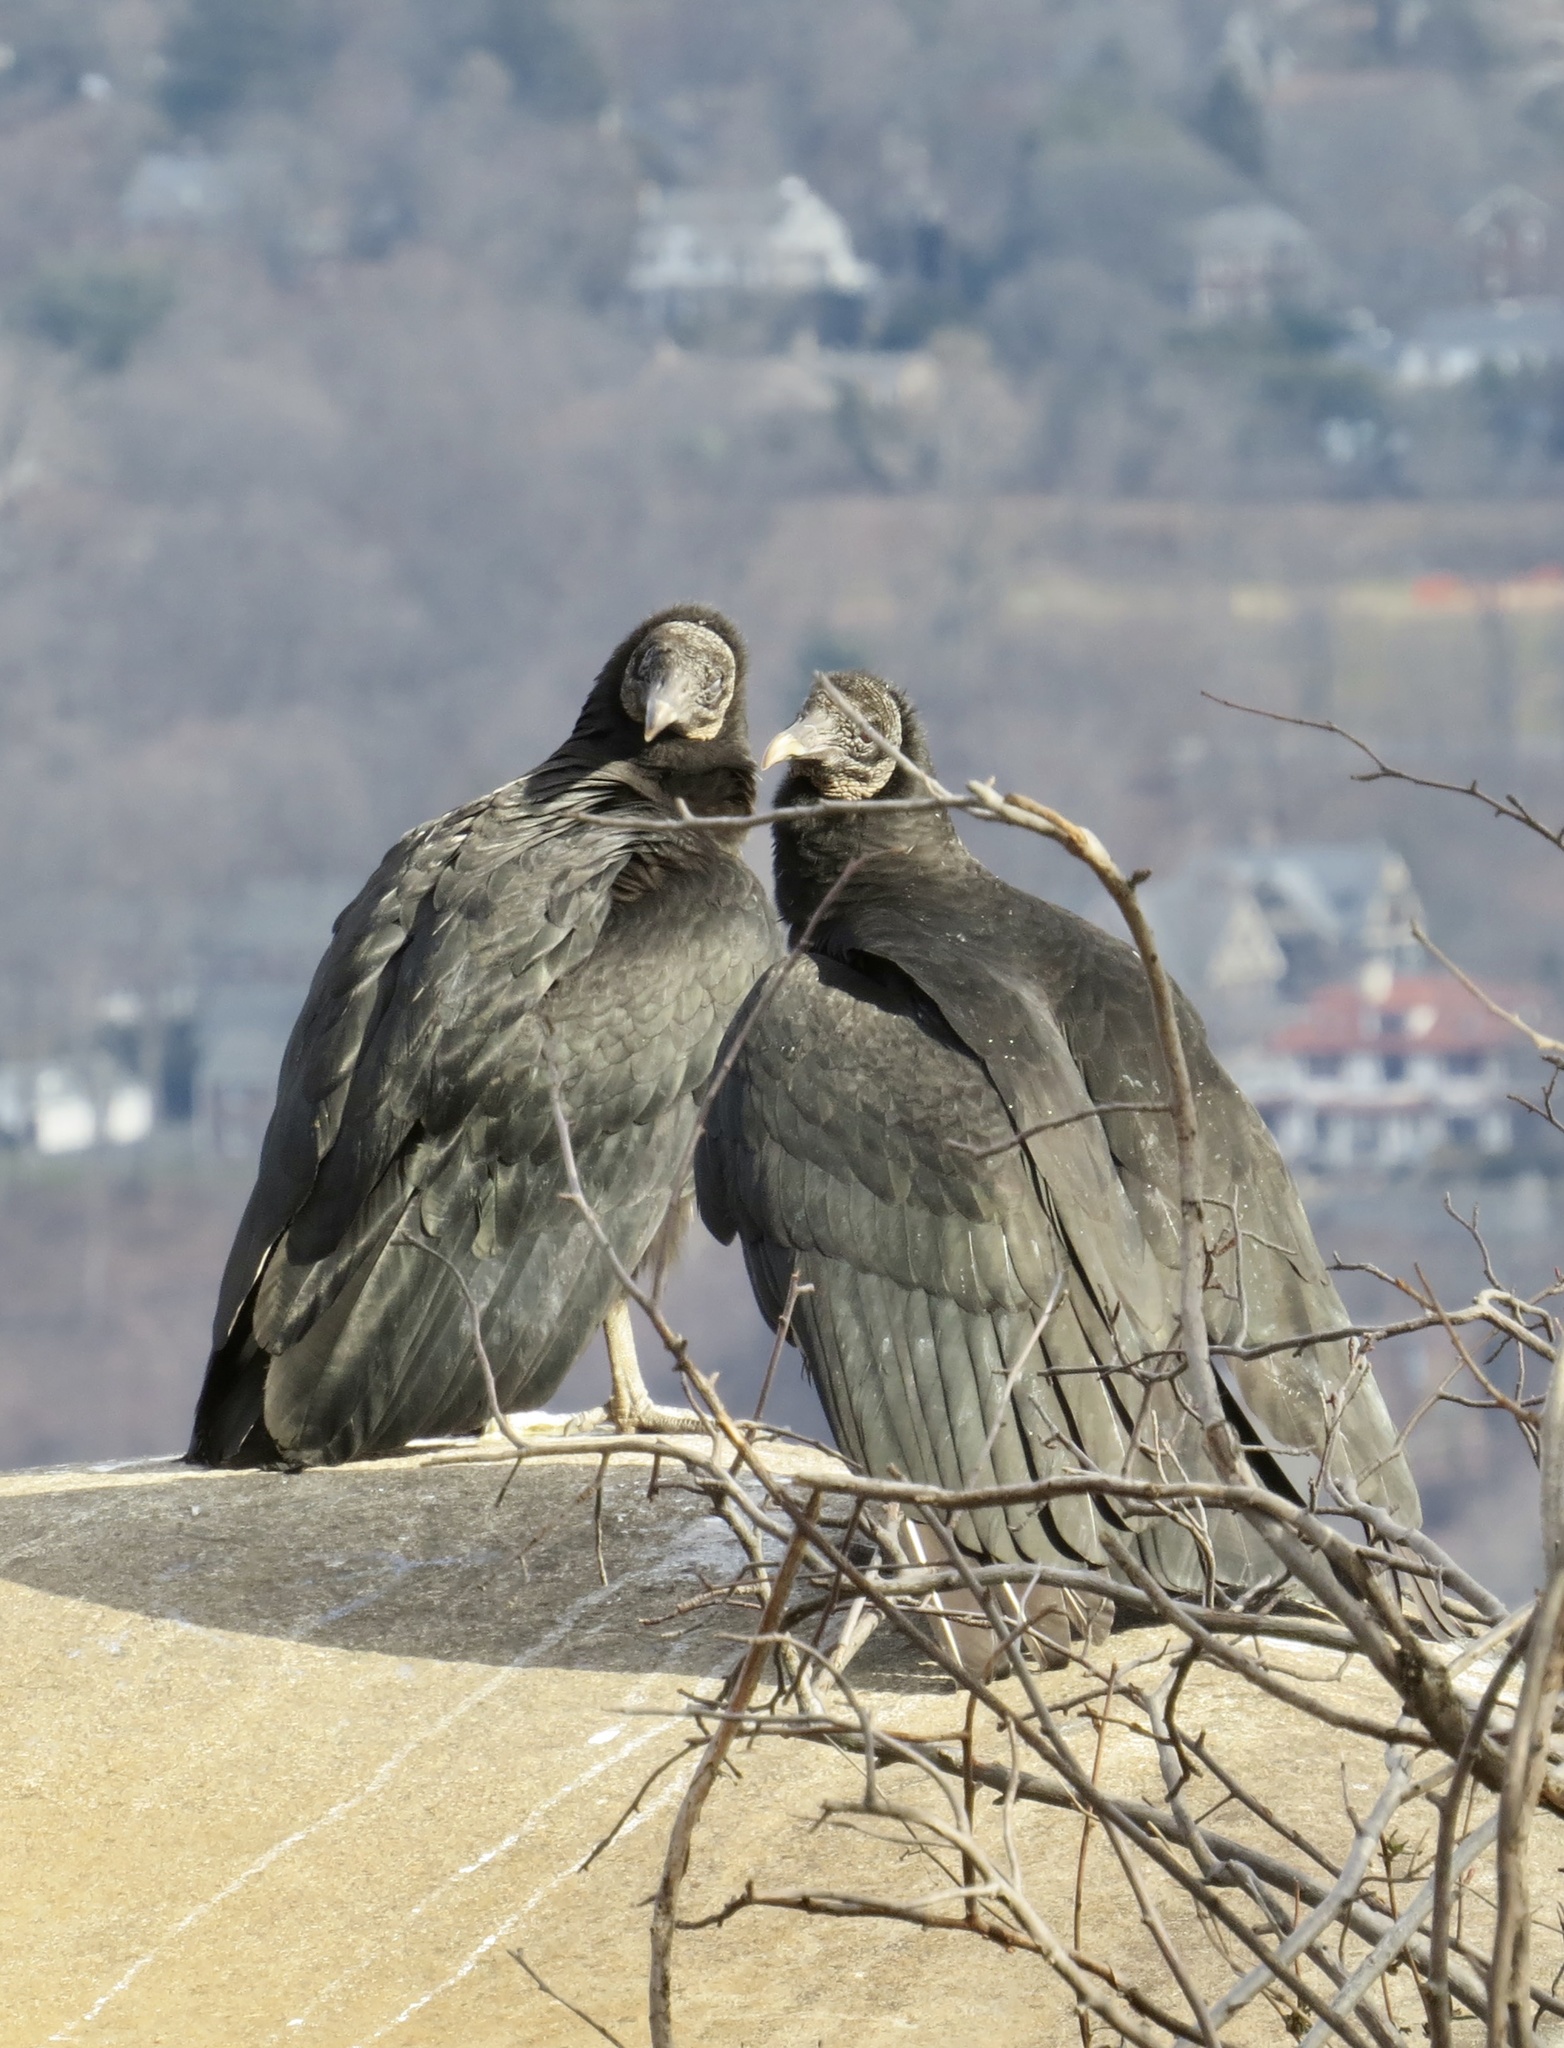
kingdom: Animalia
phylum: Chordata
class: Aves
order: Accipitriformes
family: Cathartidae
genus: Coragyps
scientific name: Coragyps atratus
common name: Black vulture
